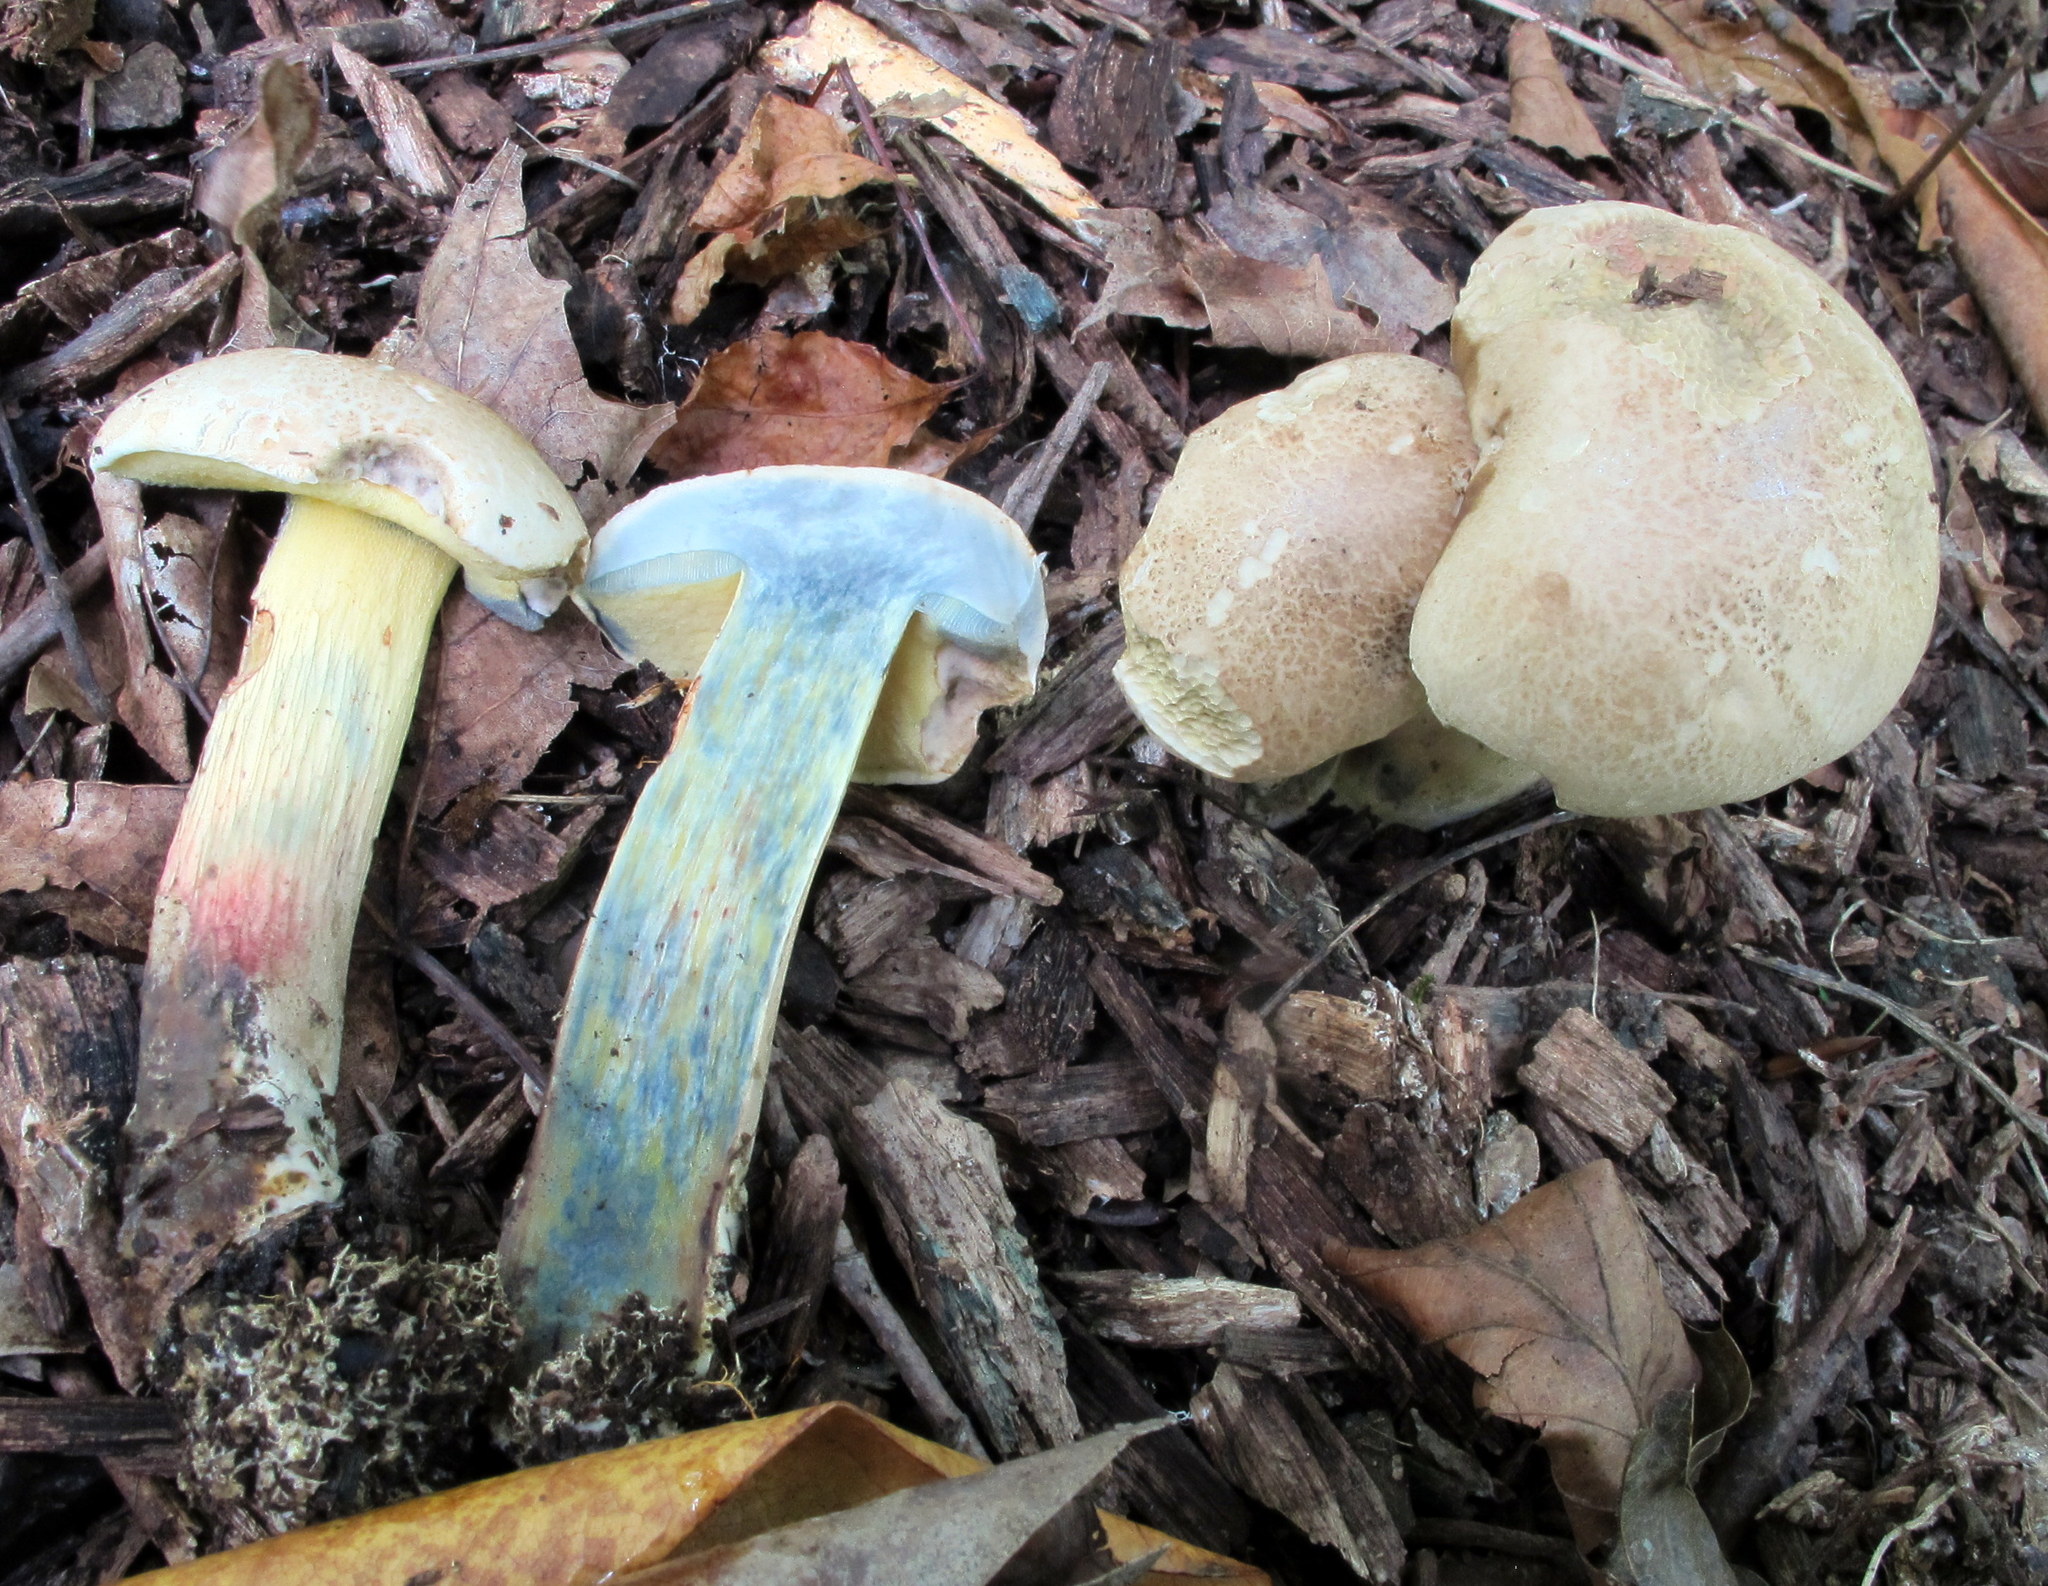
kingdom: Fungi
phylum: Basidiomycota
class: Agaricomycetes
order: Boletales
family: Boletaceae
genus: Caloboletus
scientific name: Caloboletus inedulis
